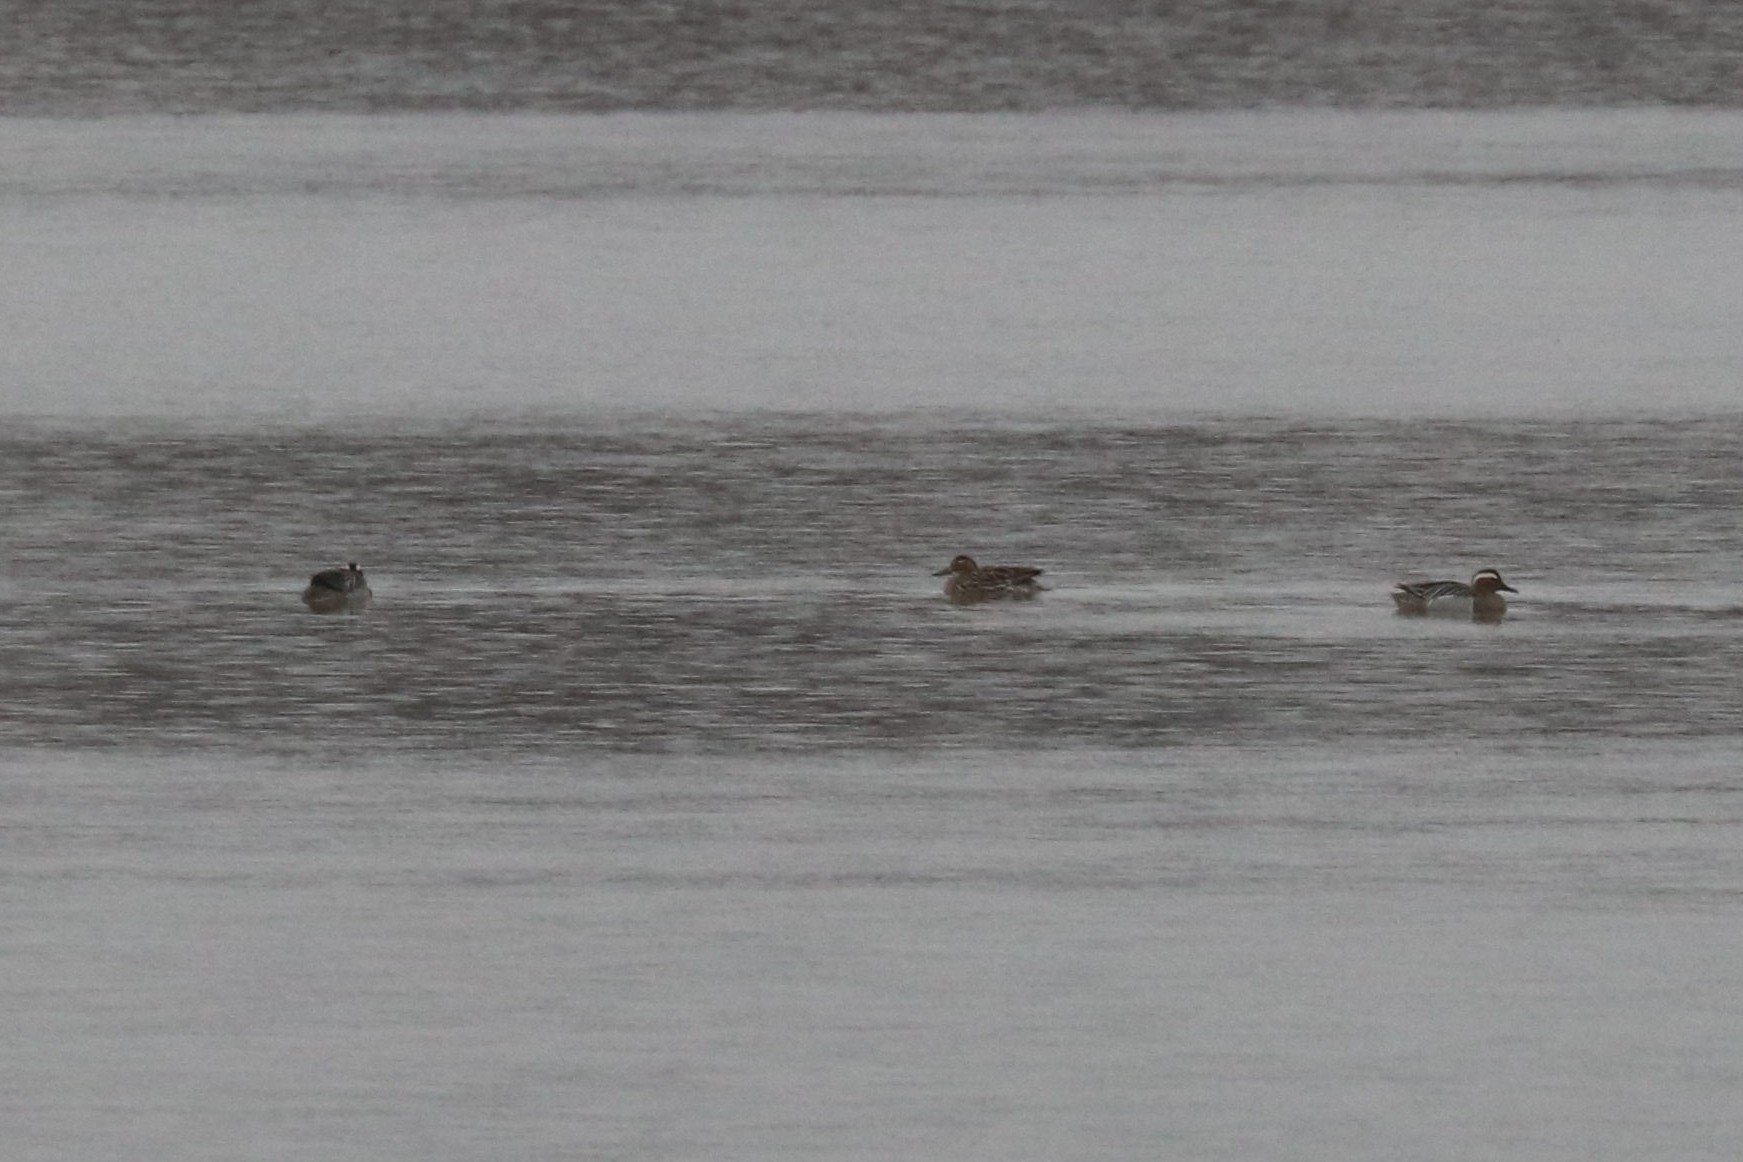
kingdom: Animalia
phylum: Chordata
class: Aves
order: Anseriformes
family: Anatidae
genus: Spatula
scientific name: Spatula querquedula
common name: Garganey
